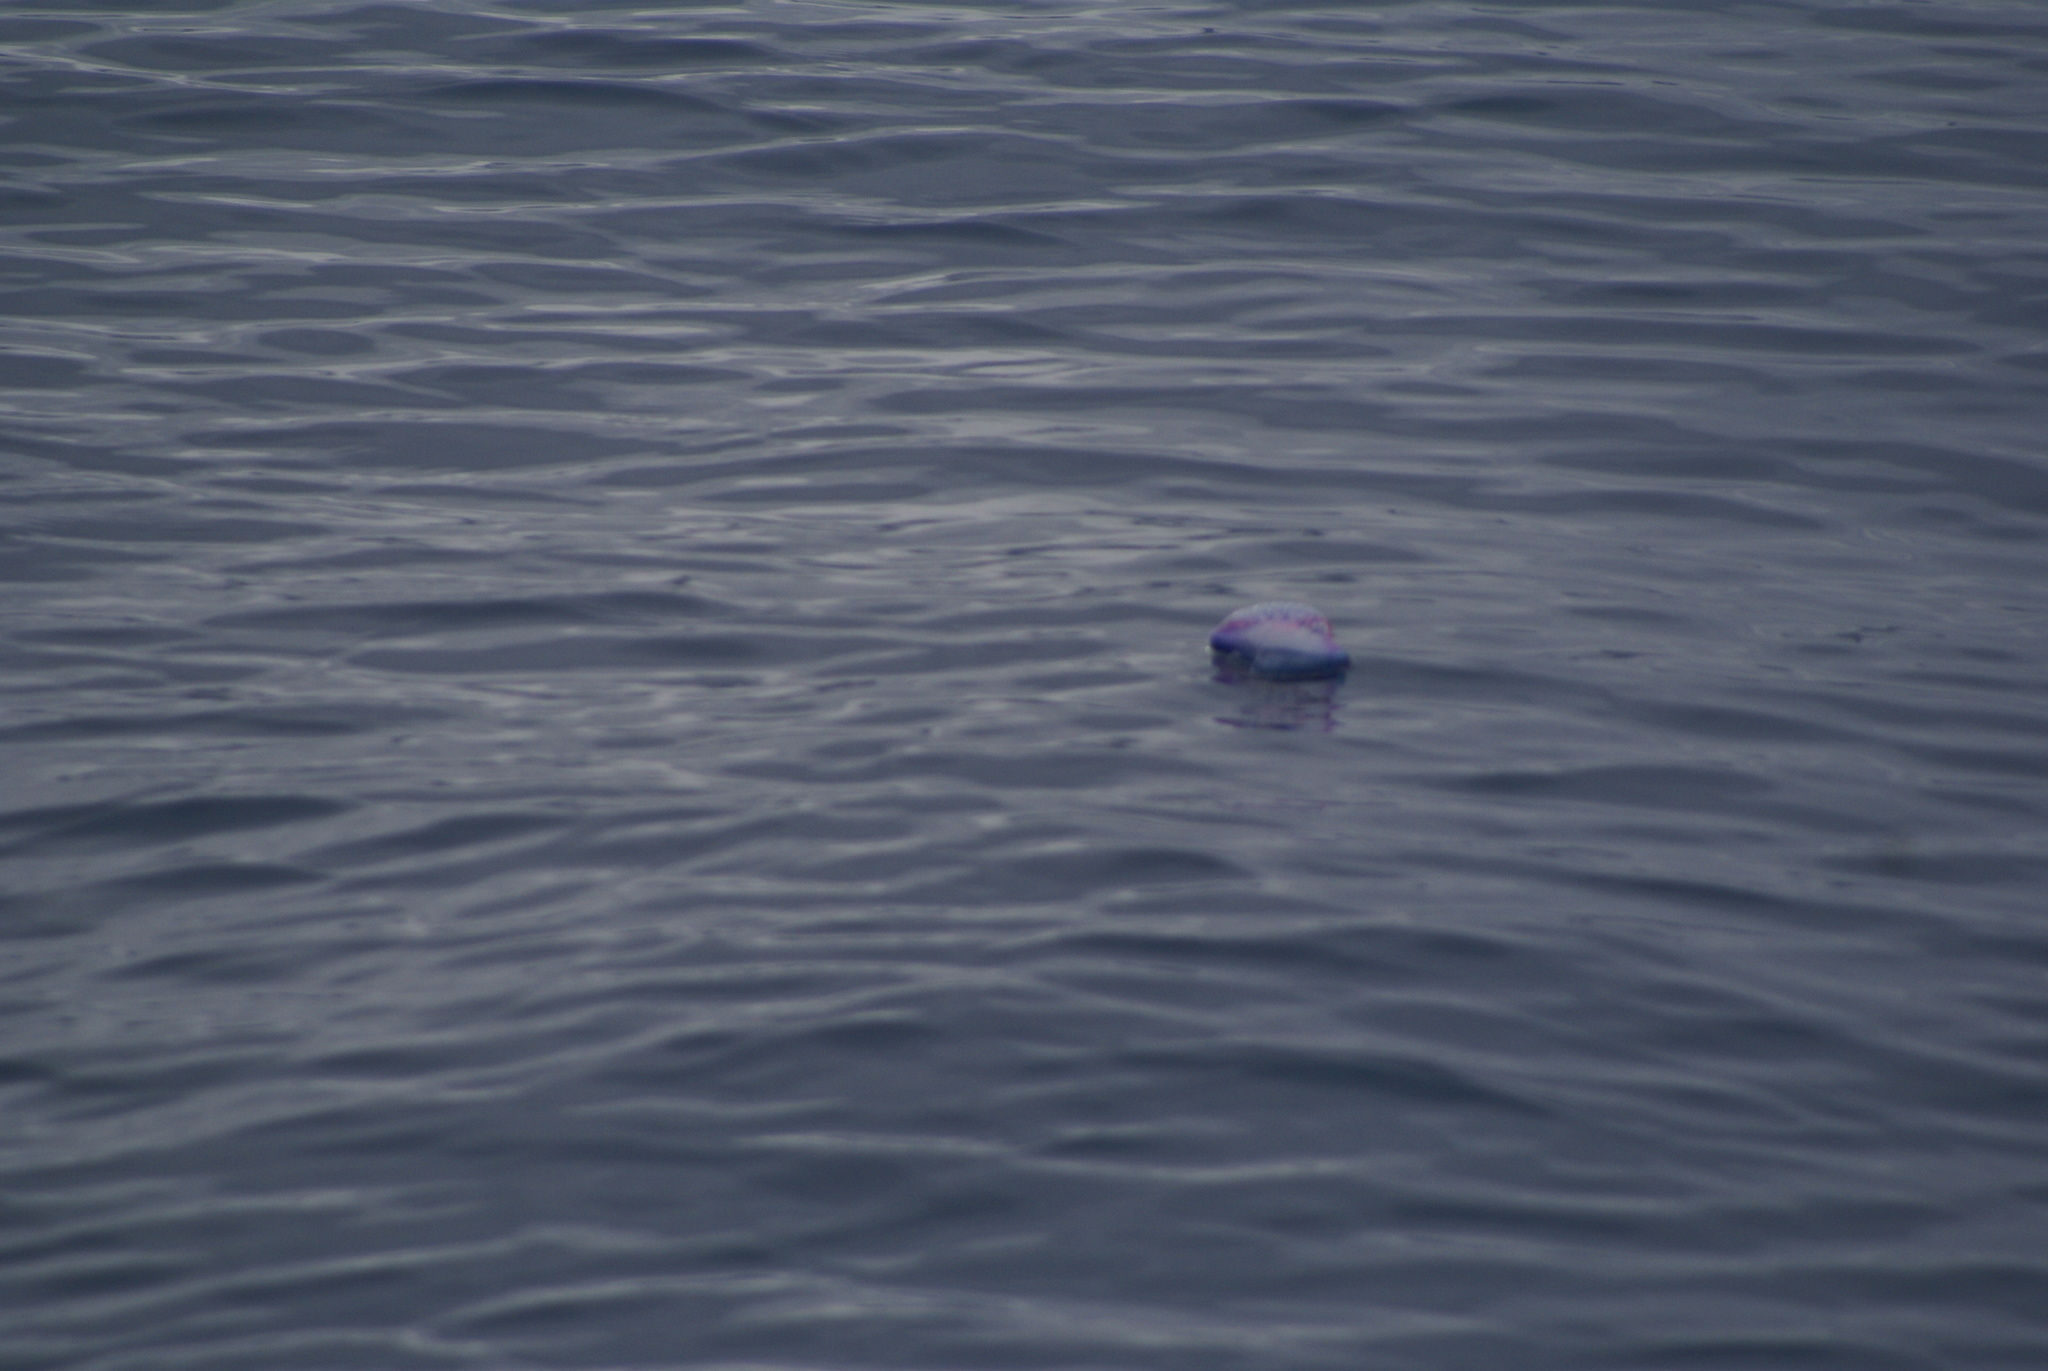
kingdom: Animalia
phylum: Cnidaria
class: Hydrozoa
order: Siphonophorae
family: Physaliidae
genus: Physalia
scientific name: Physalia physalis
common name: Portuguese man-of-war
